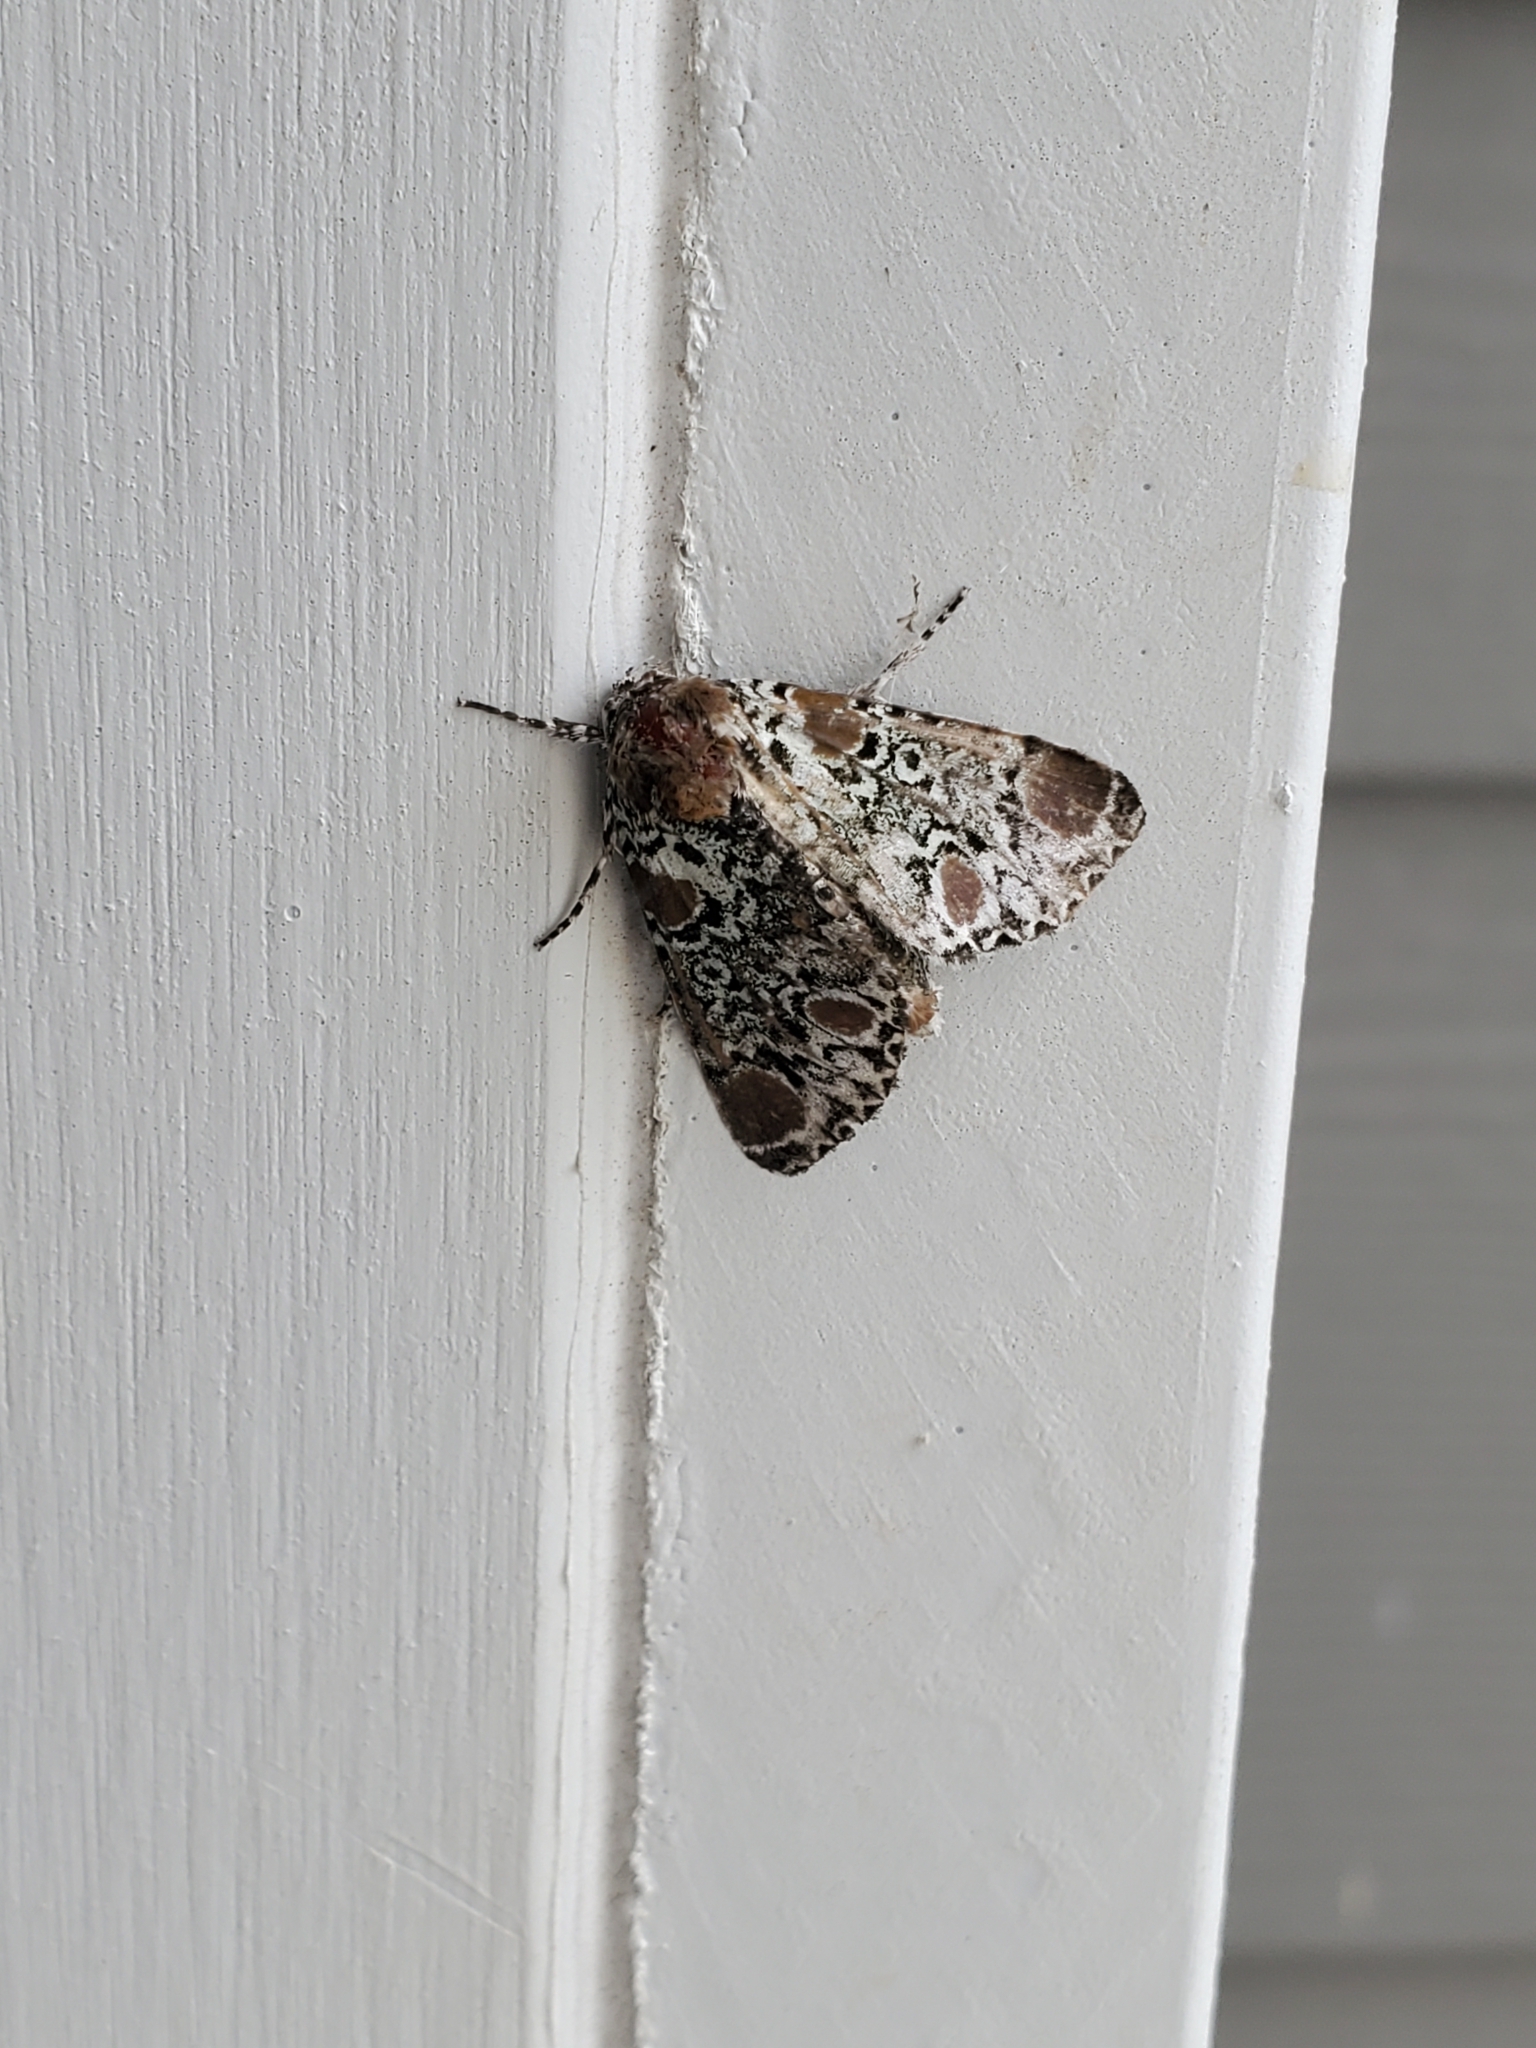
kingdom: Animalia
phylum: Arthropoda
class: Insecta
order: Lepidoptera
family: Noctuidae
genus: Harrisimemna
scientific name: Harrisimemna trisignata
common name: Harris threespot
